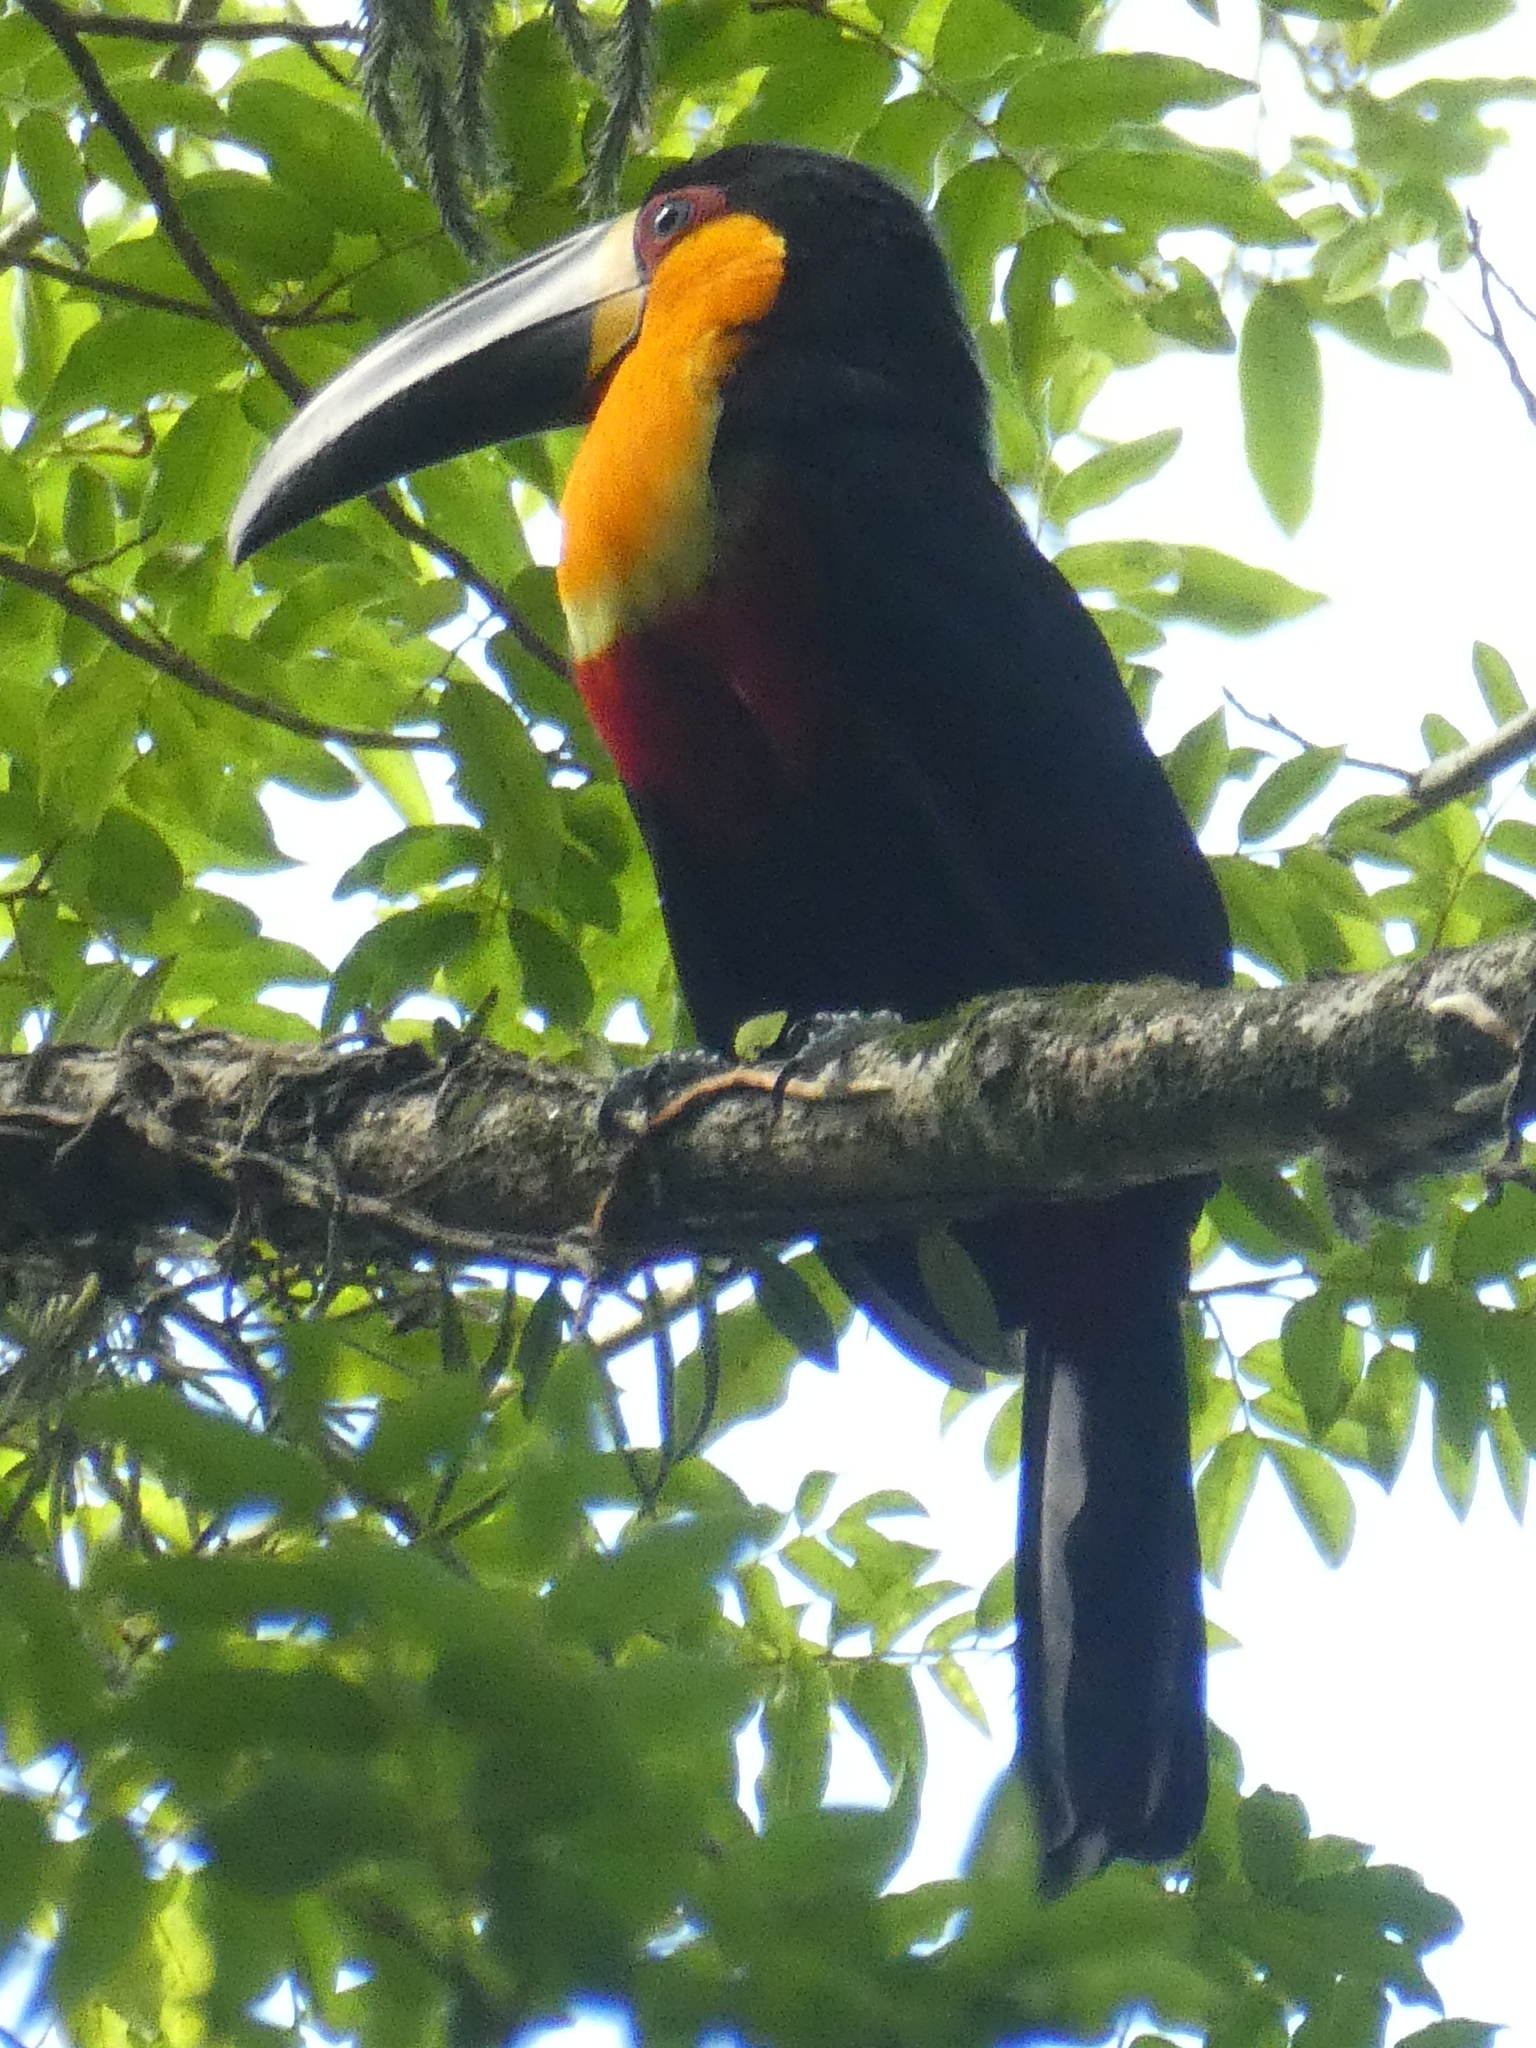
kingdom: Animalia
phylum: Chordata
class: Aves
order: Piciformes
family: Ramphastidae
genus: Ramphastos
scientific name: Ramphastos vitellinus
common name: Channel-billed toucan
